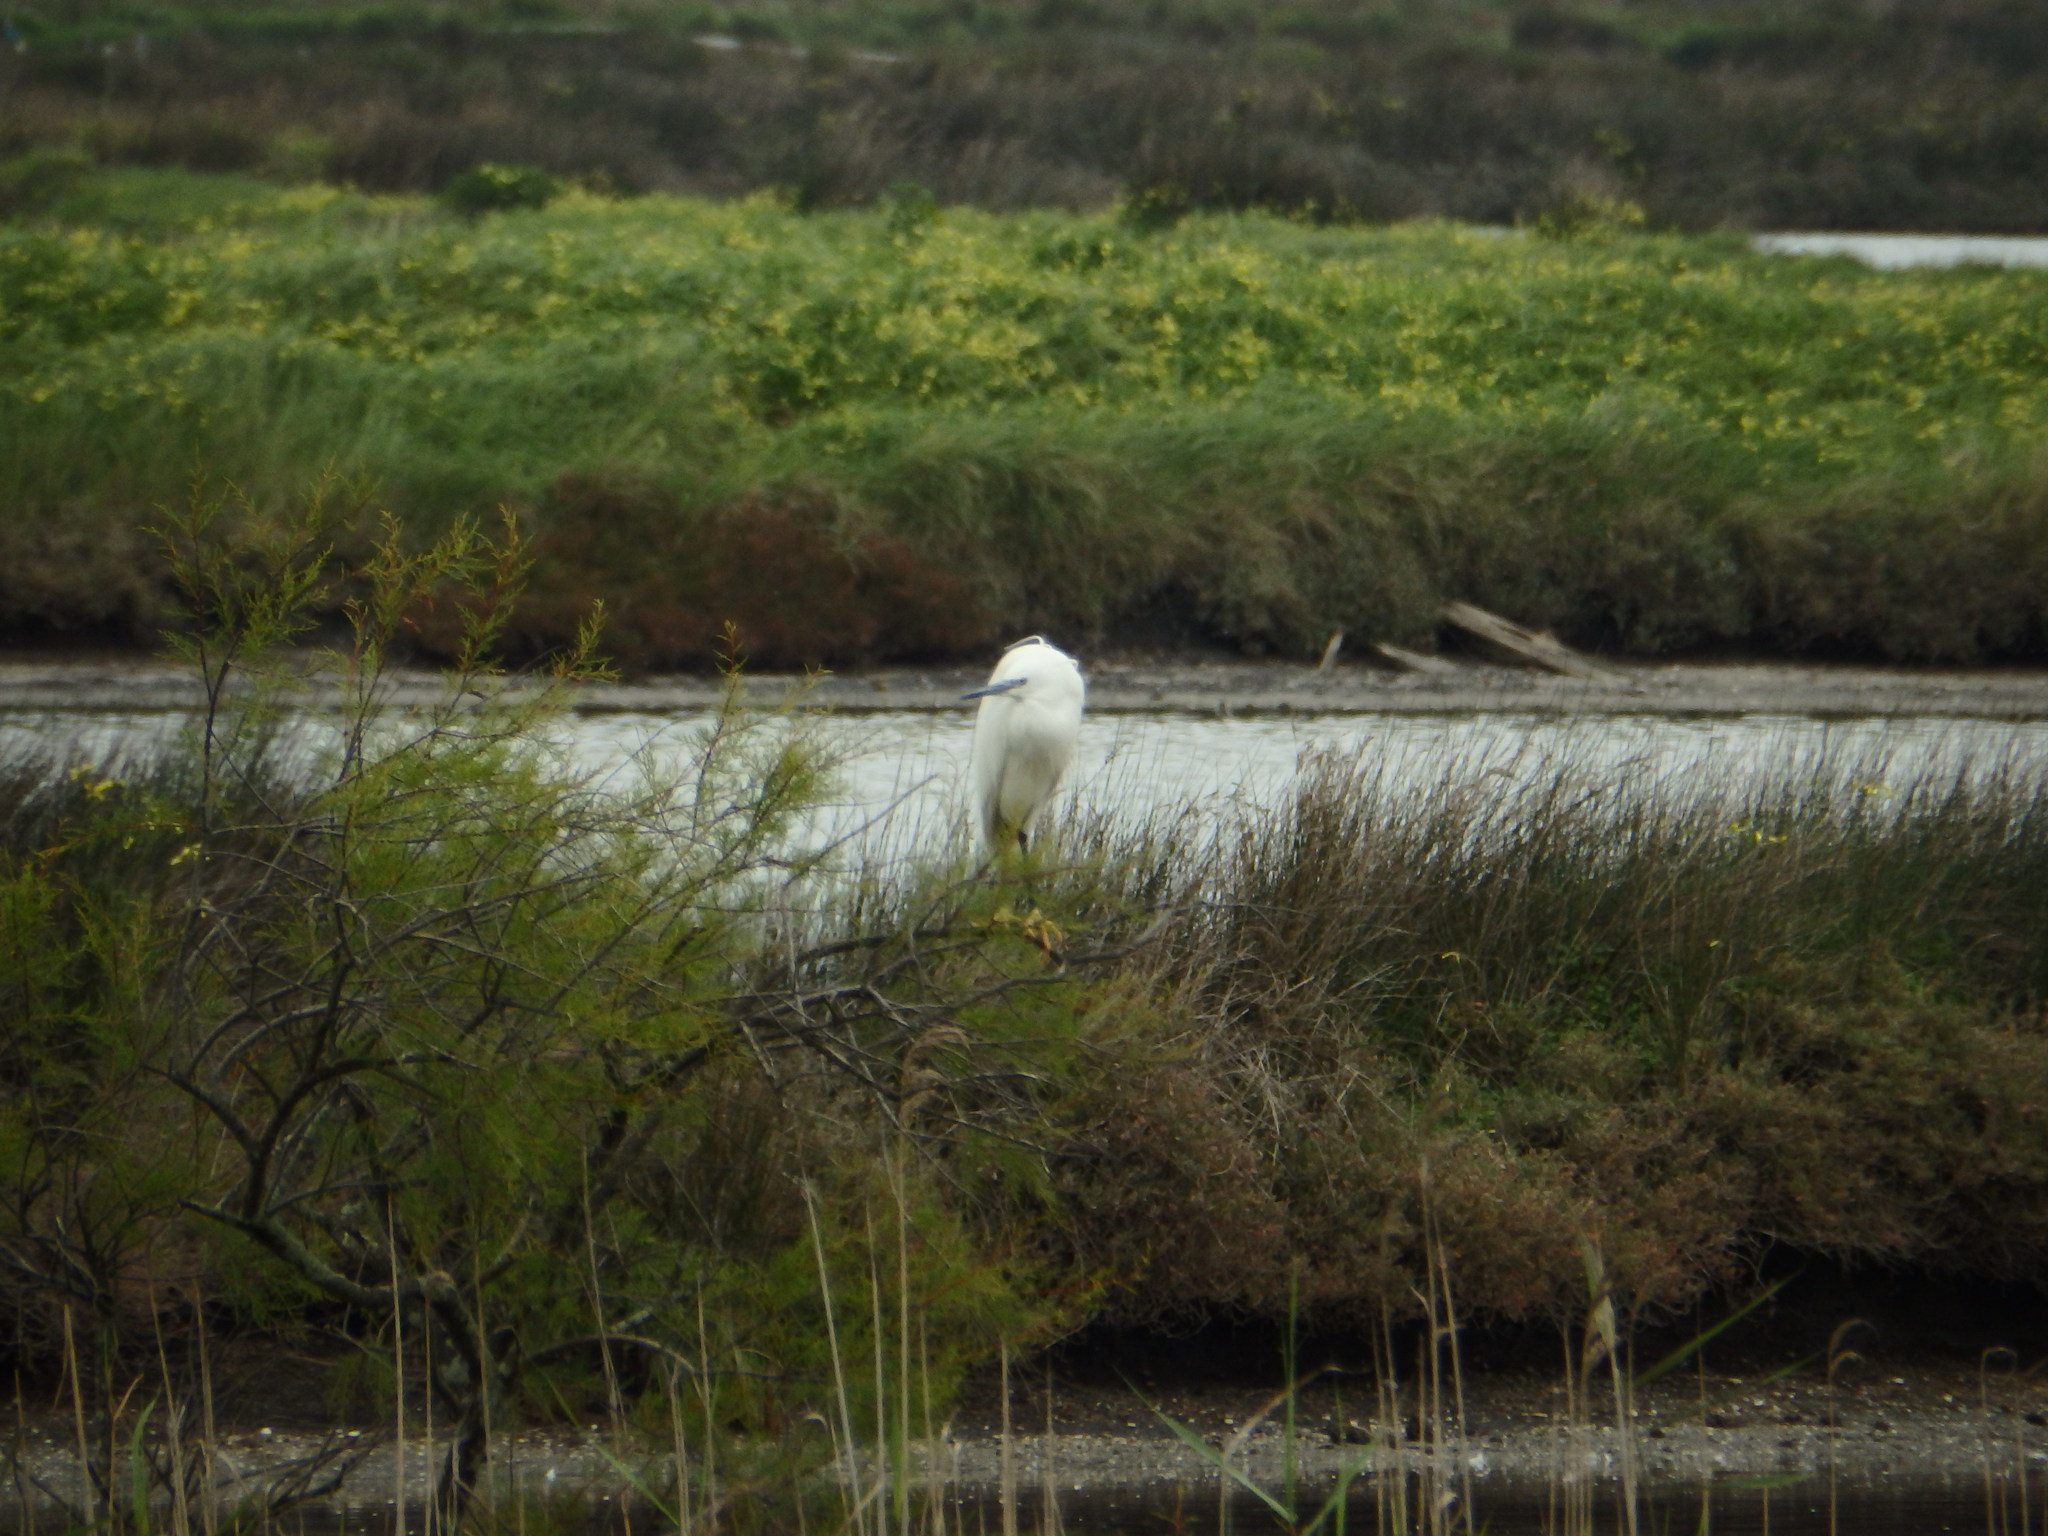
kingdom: Animalia
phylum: Chordata
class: Aves
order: Pelecaniformes
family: Ardeidae
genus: Egretta
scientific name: Egretta garzetta
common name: Little egret
